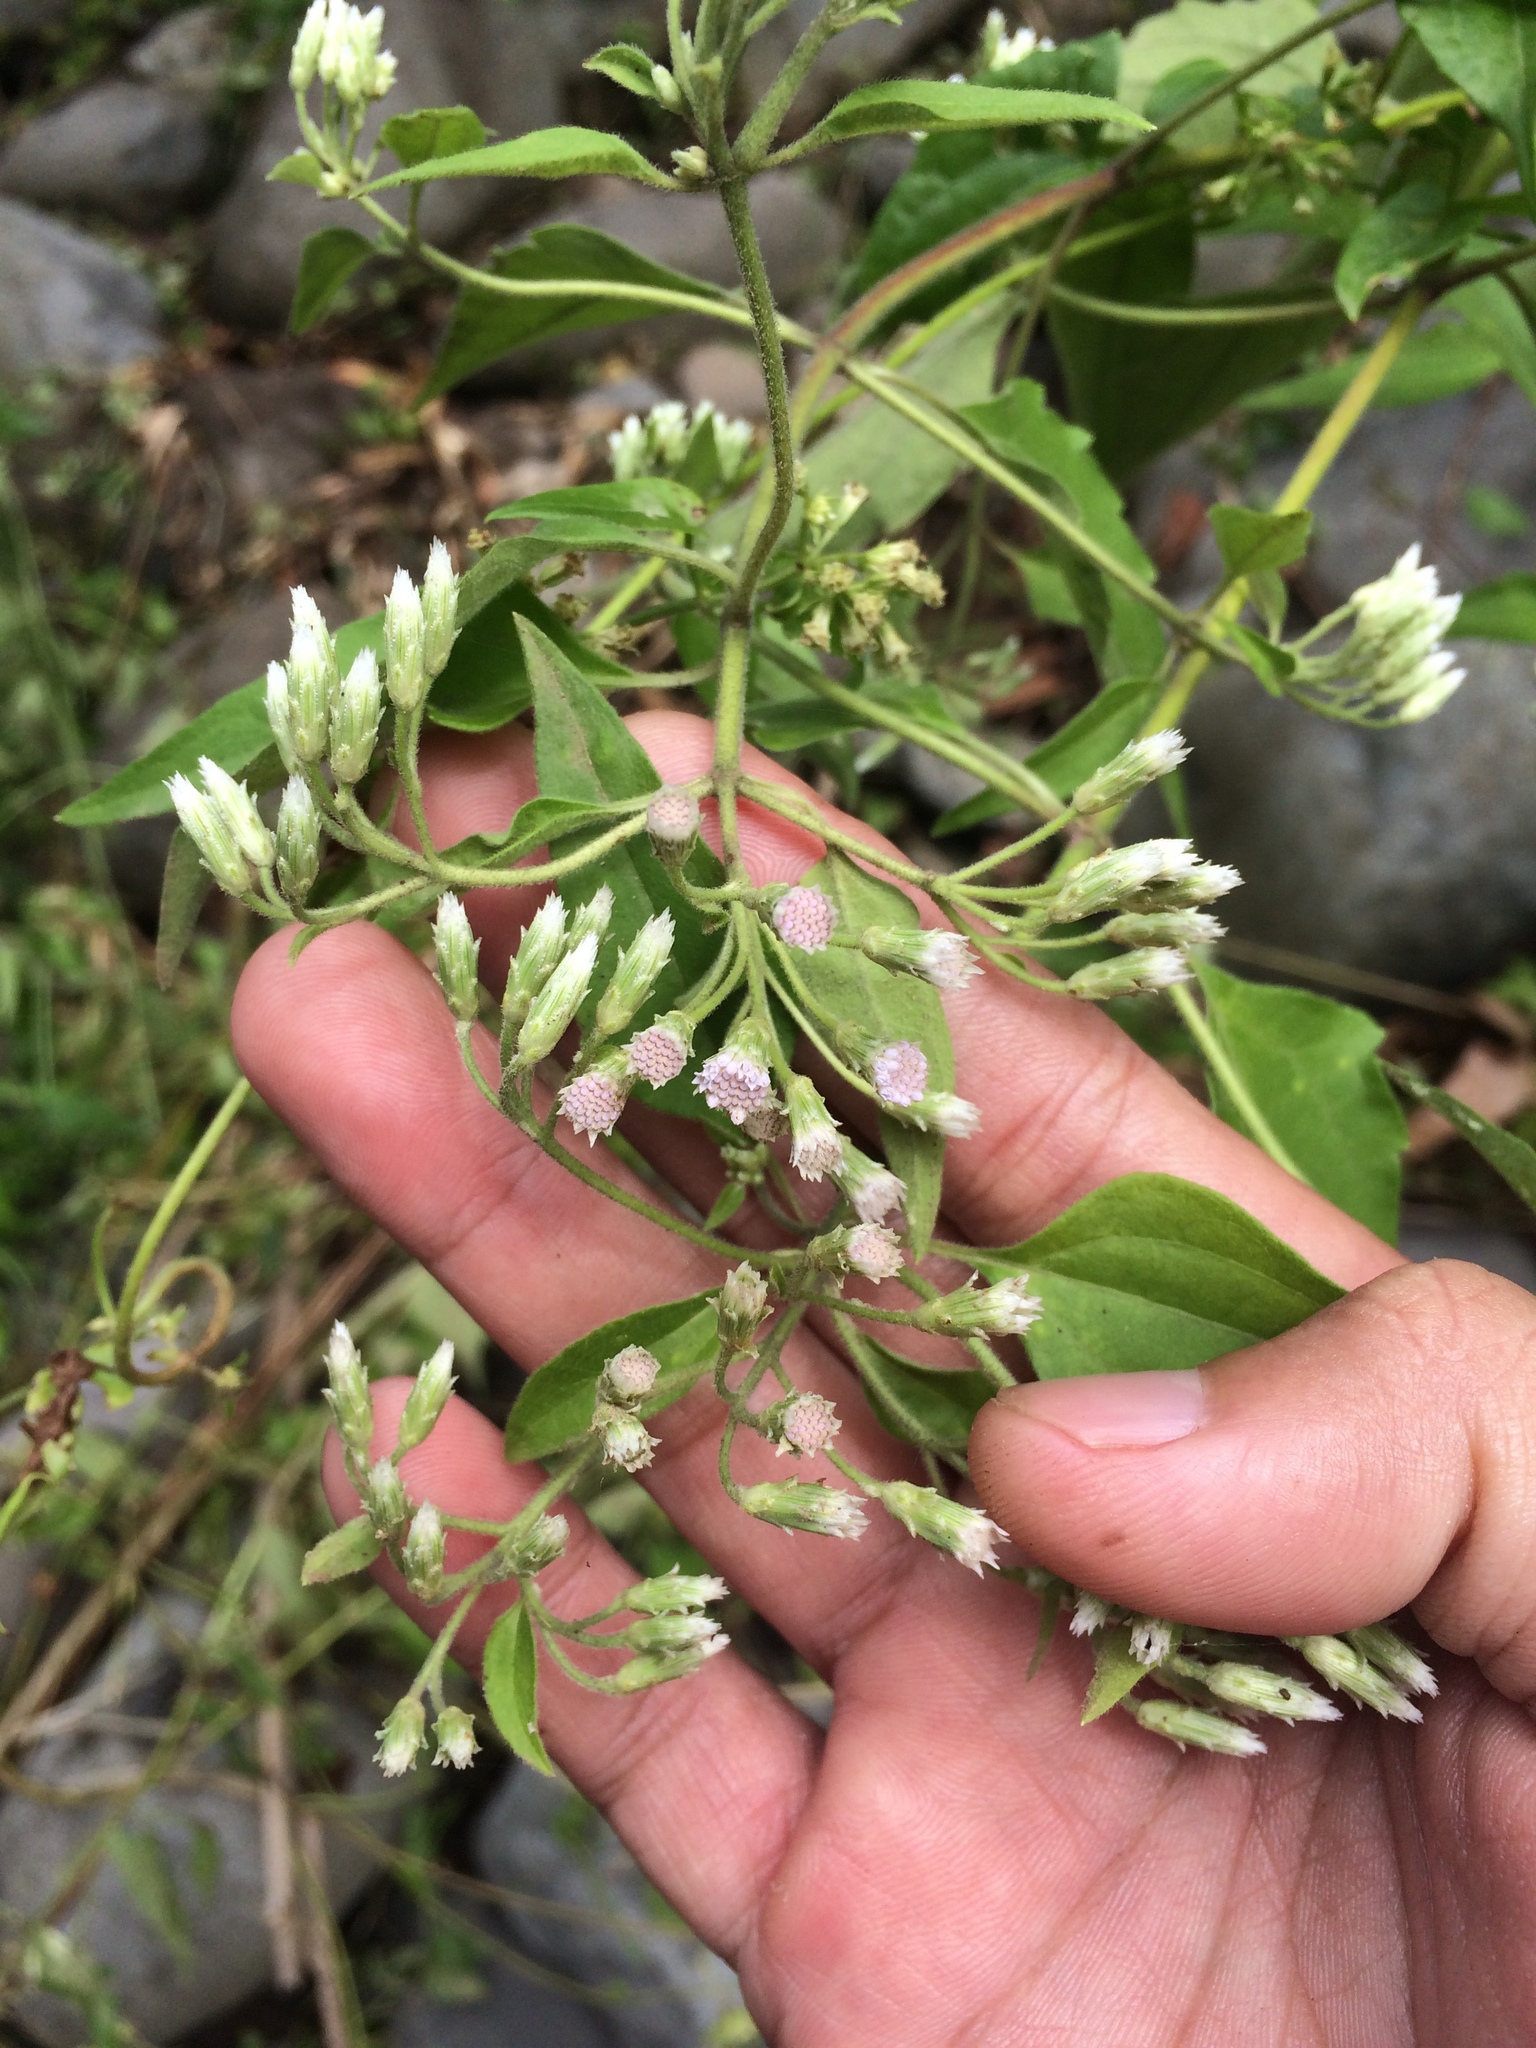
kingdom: Plantae
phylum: Tracheophyta
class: Magnoliopsida
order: Asterales
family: Asteraceae
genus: Chromolaena
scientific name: Chromolaena odorata
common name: Siamweed
